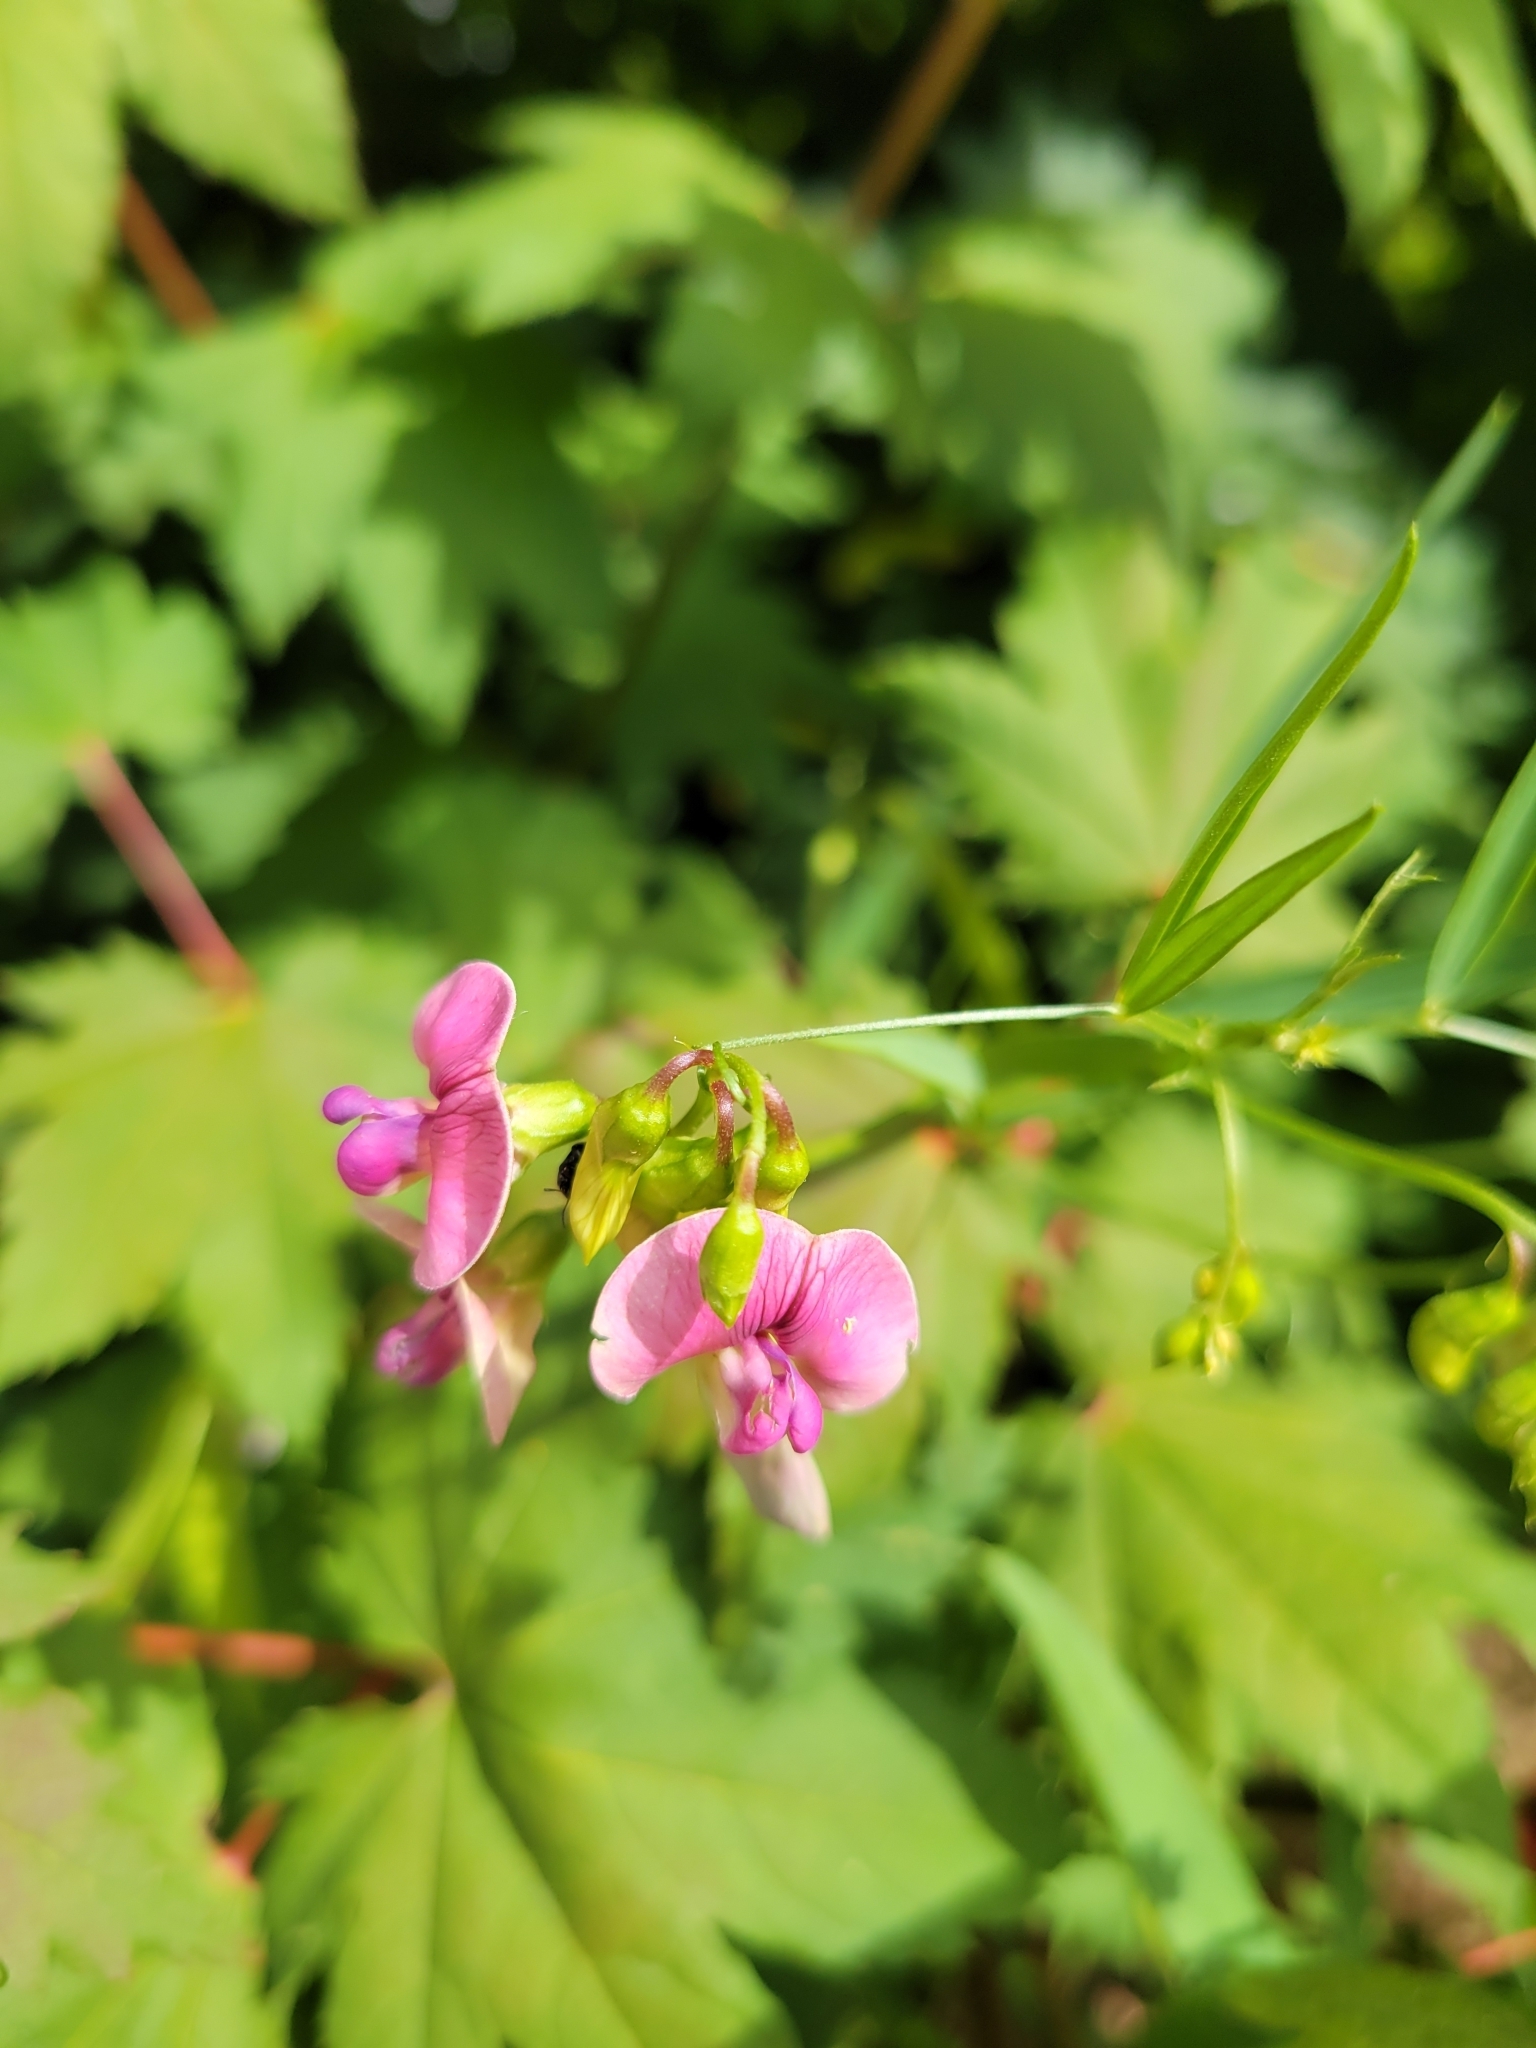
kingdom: Plantae
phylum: Tracheophyta
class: Magnoliopsida
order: Fabales
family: Fabaceae
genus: Lathyrus
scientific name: Lathyrus sylvestris
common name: Flat pea
